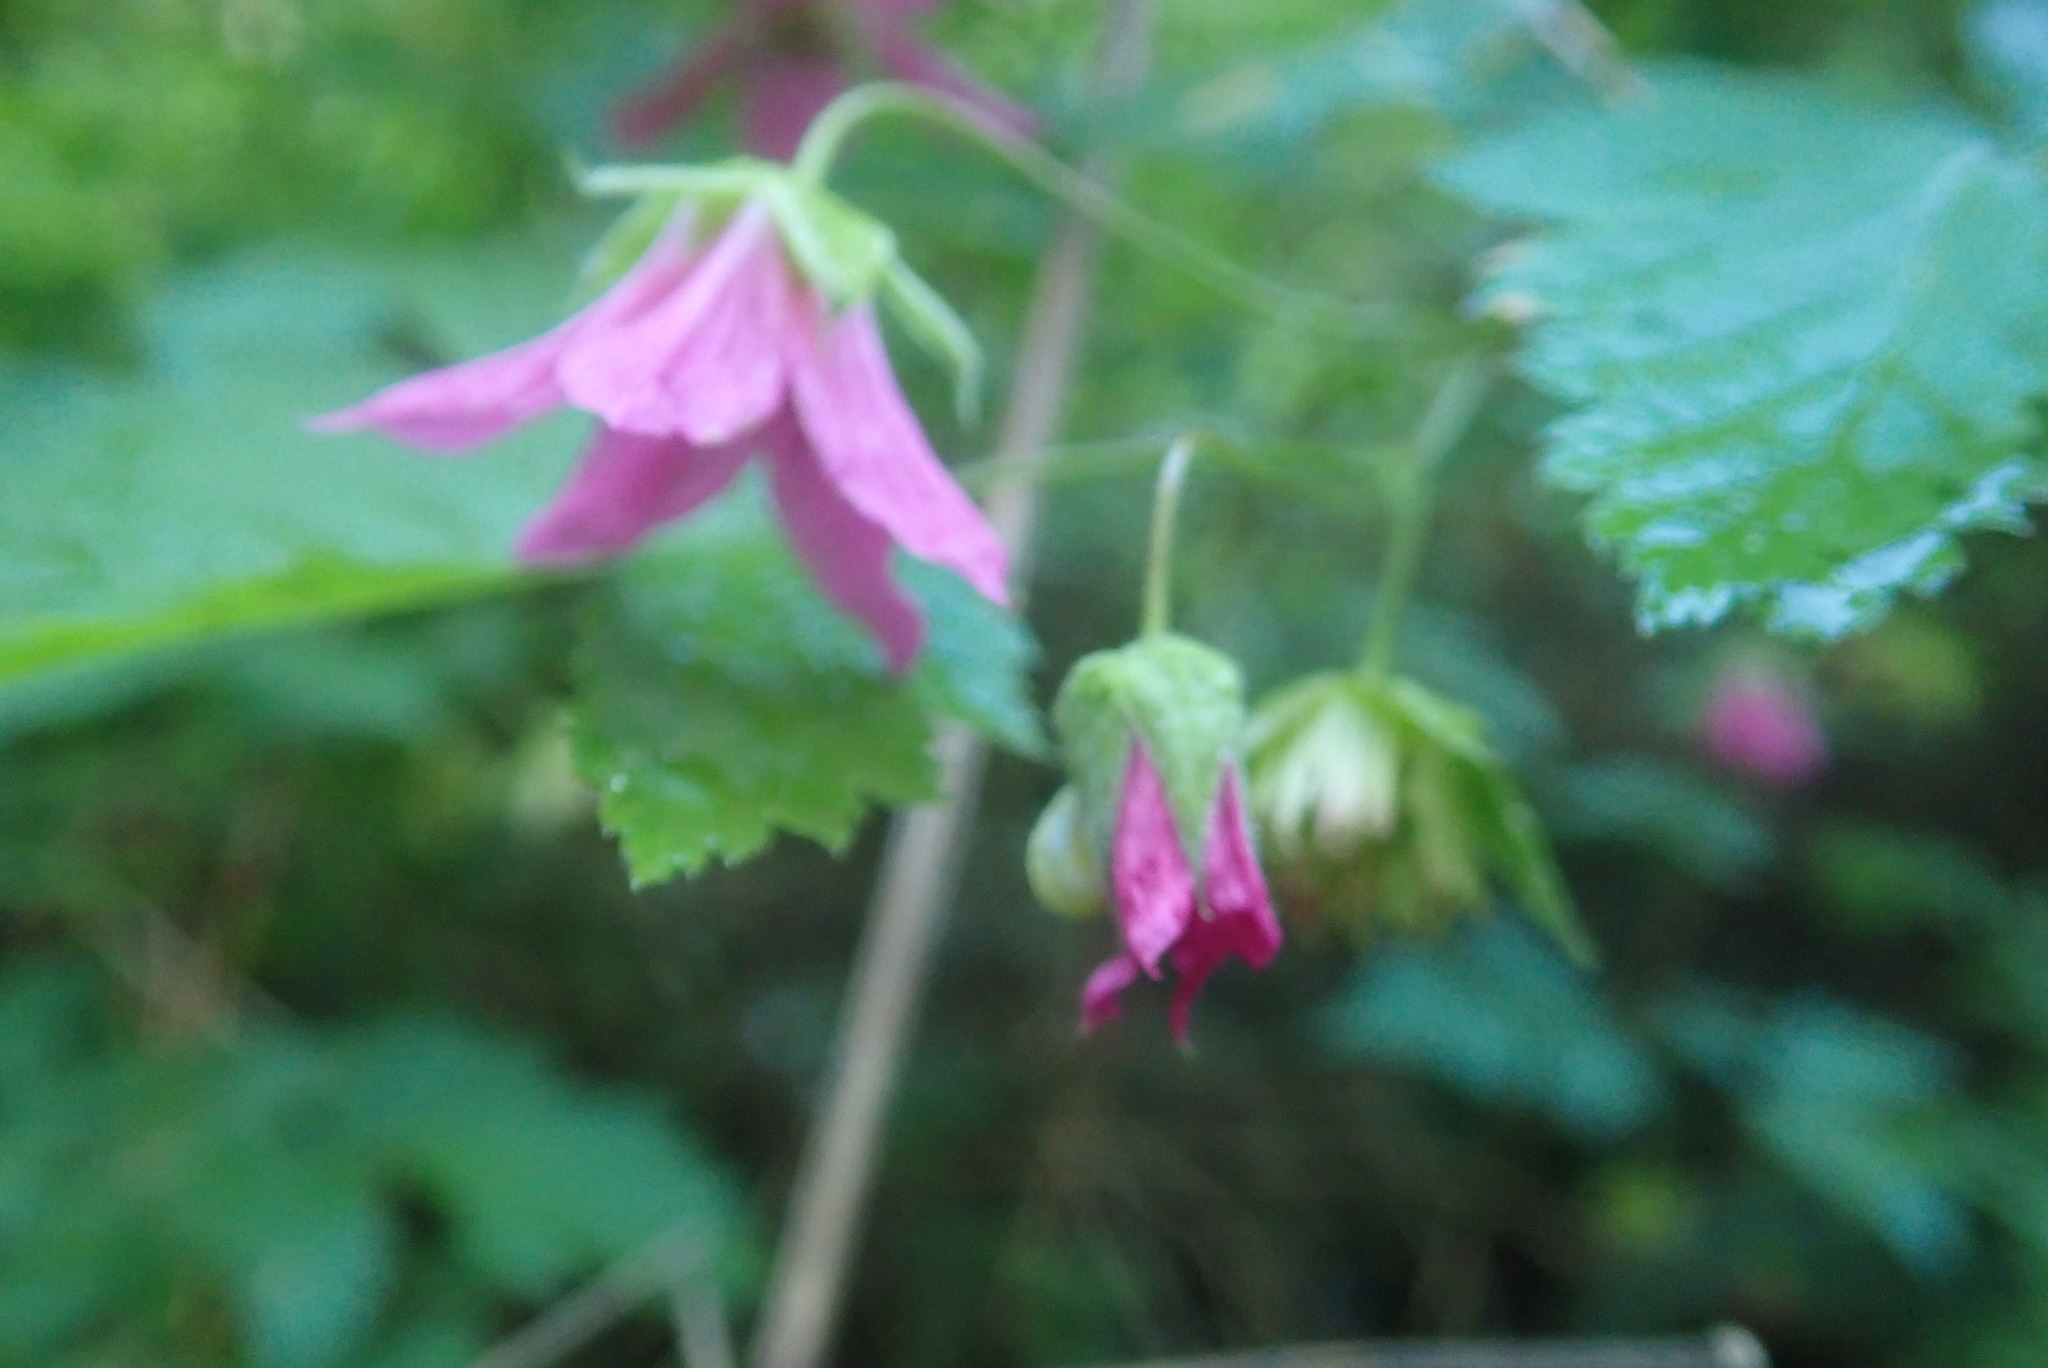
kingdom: Plantae
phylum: Tracheophyta
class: Magnoliopsida
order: Rosales
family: Rosaceae
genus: Rubus
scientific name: Rubus spectabilis
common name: Salmonberry
